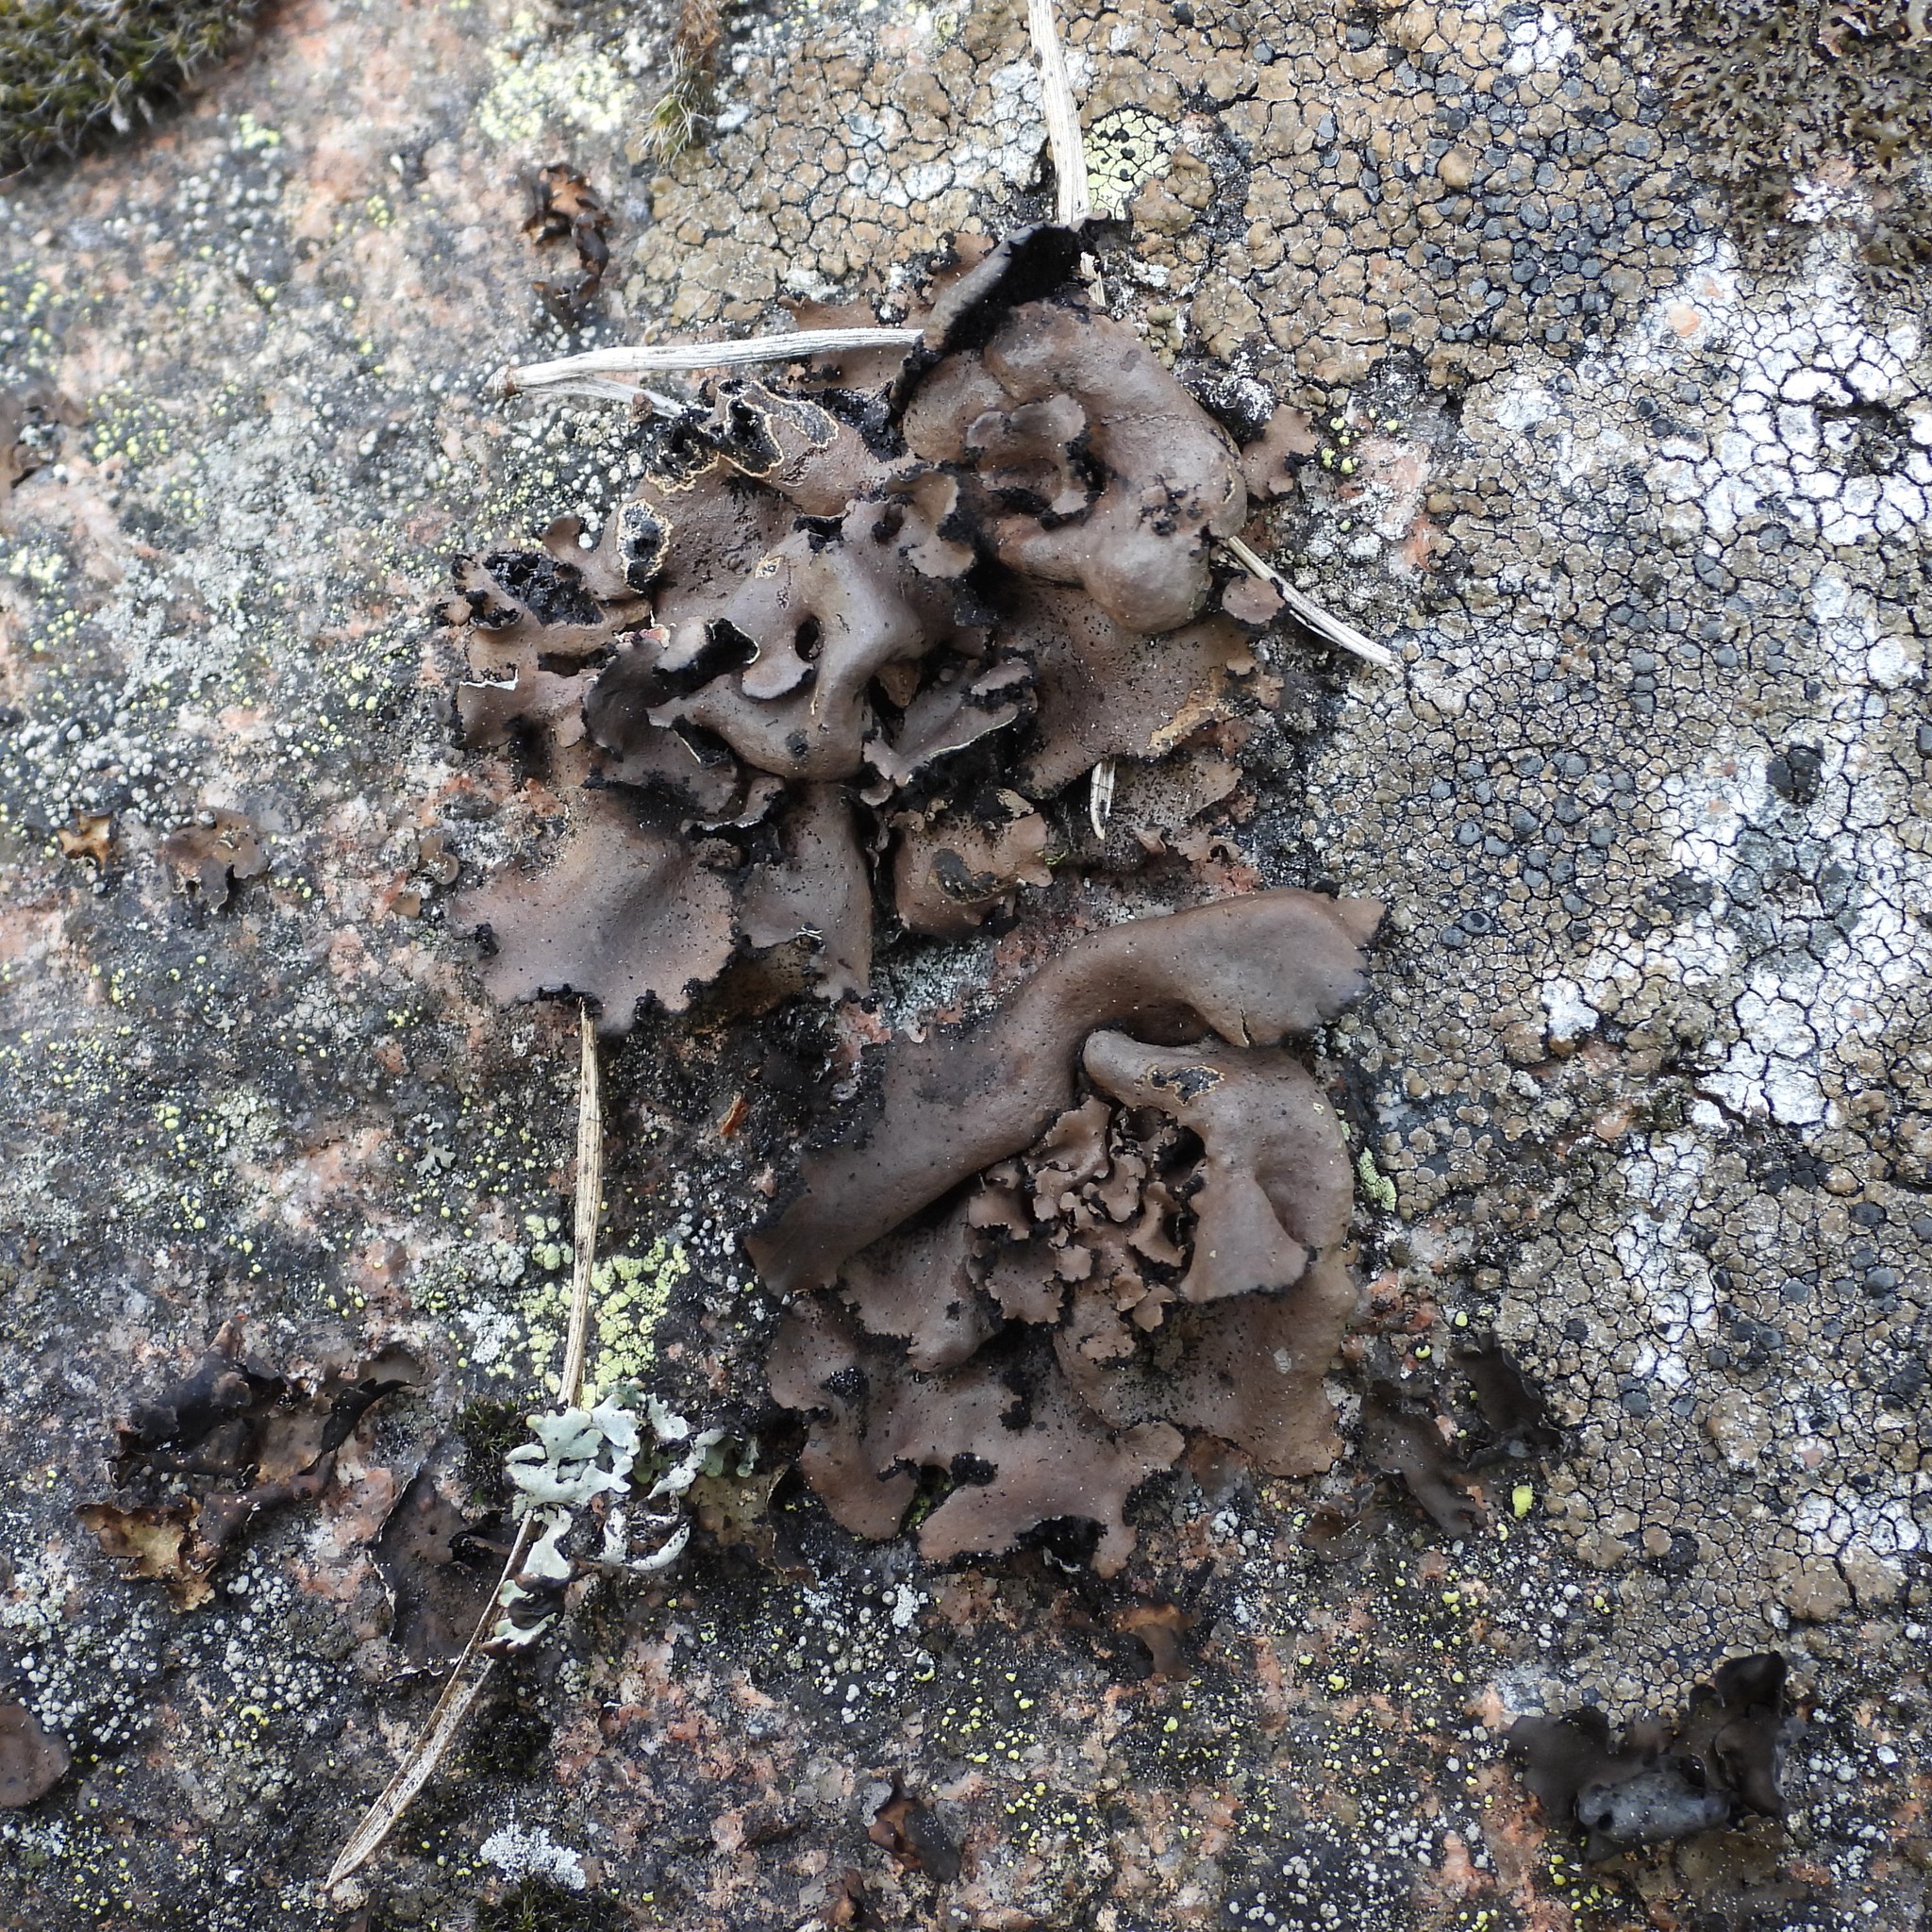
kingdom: Fungi
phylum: Ascomycota
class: Lecanoromycetes
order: Umbilicariales
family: Umbilicariaceae
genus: Umbilicaria
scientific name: Umbilicaria polyrrhiza
